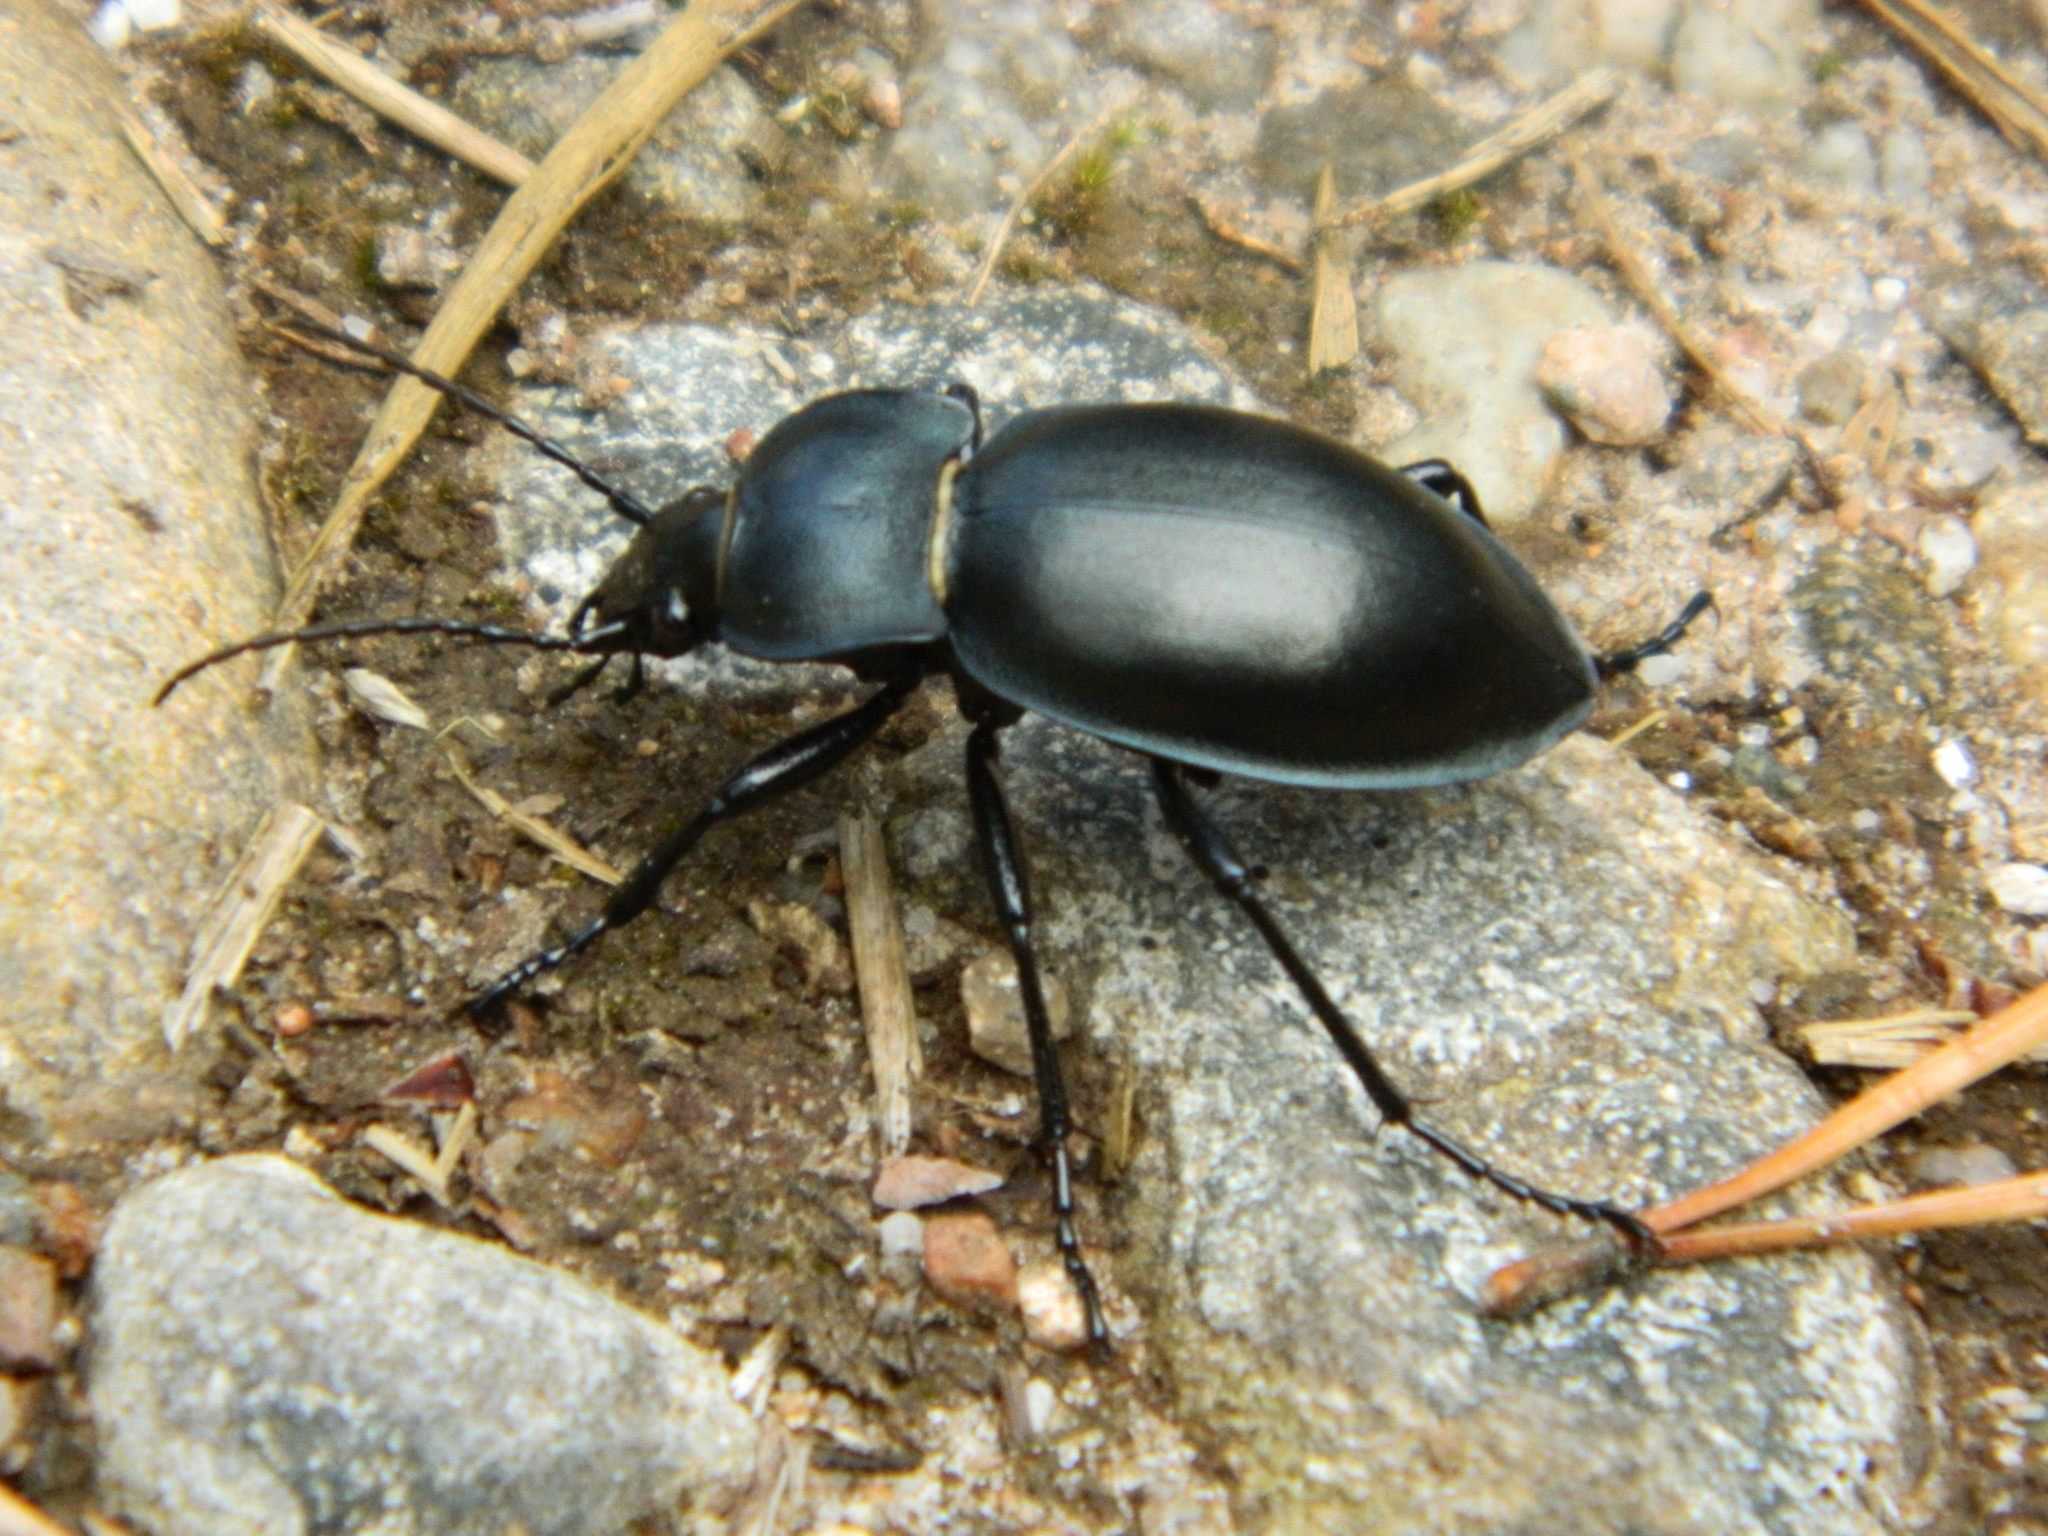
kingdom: Animalia
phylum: Arthropoda
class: Insecta
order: Coleoptera
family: Carabidae
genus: Carabus
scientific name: Carabus glabratus
